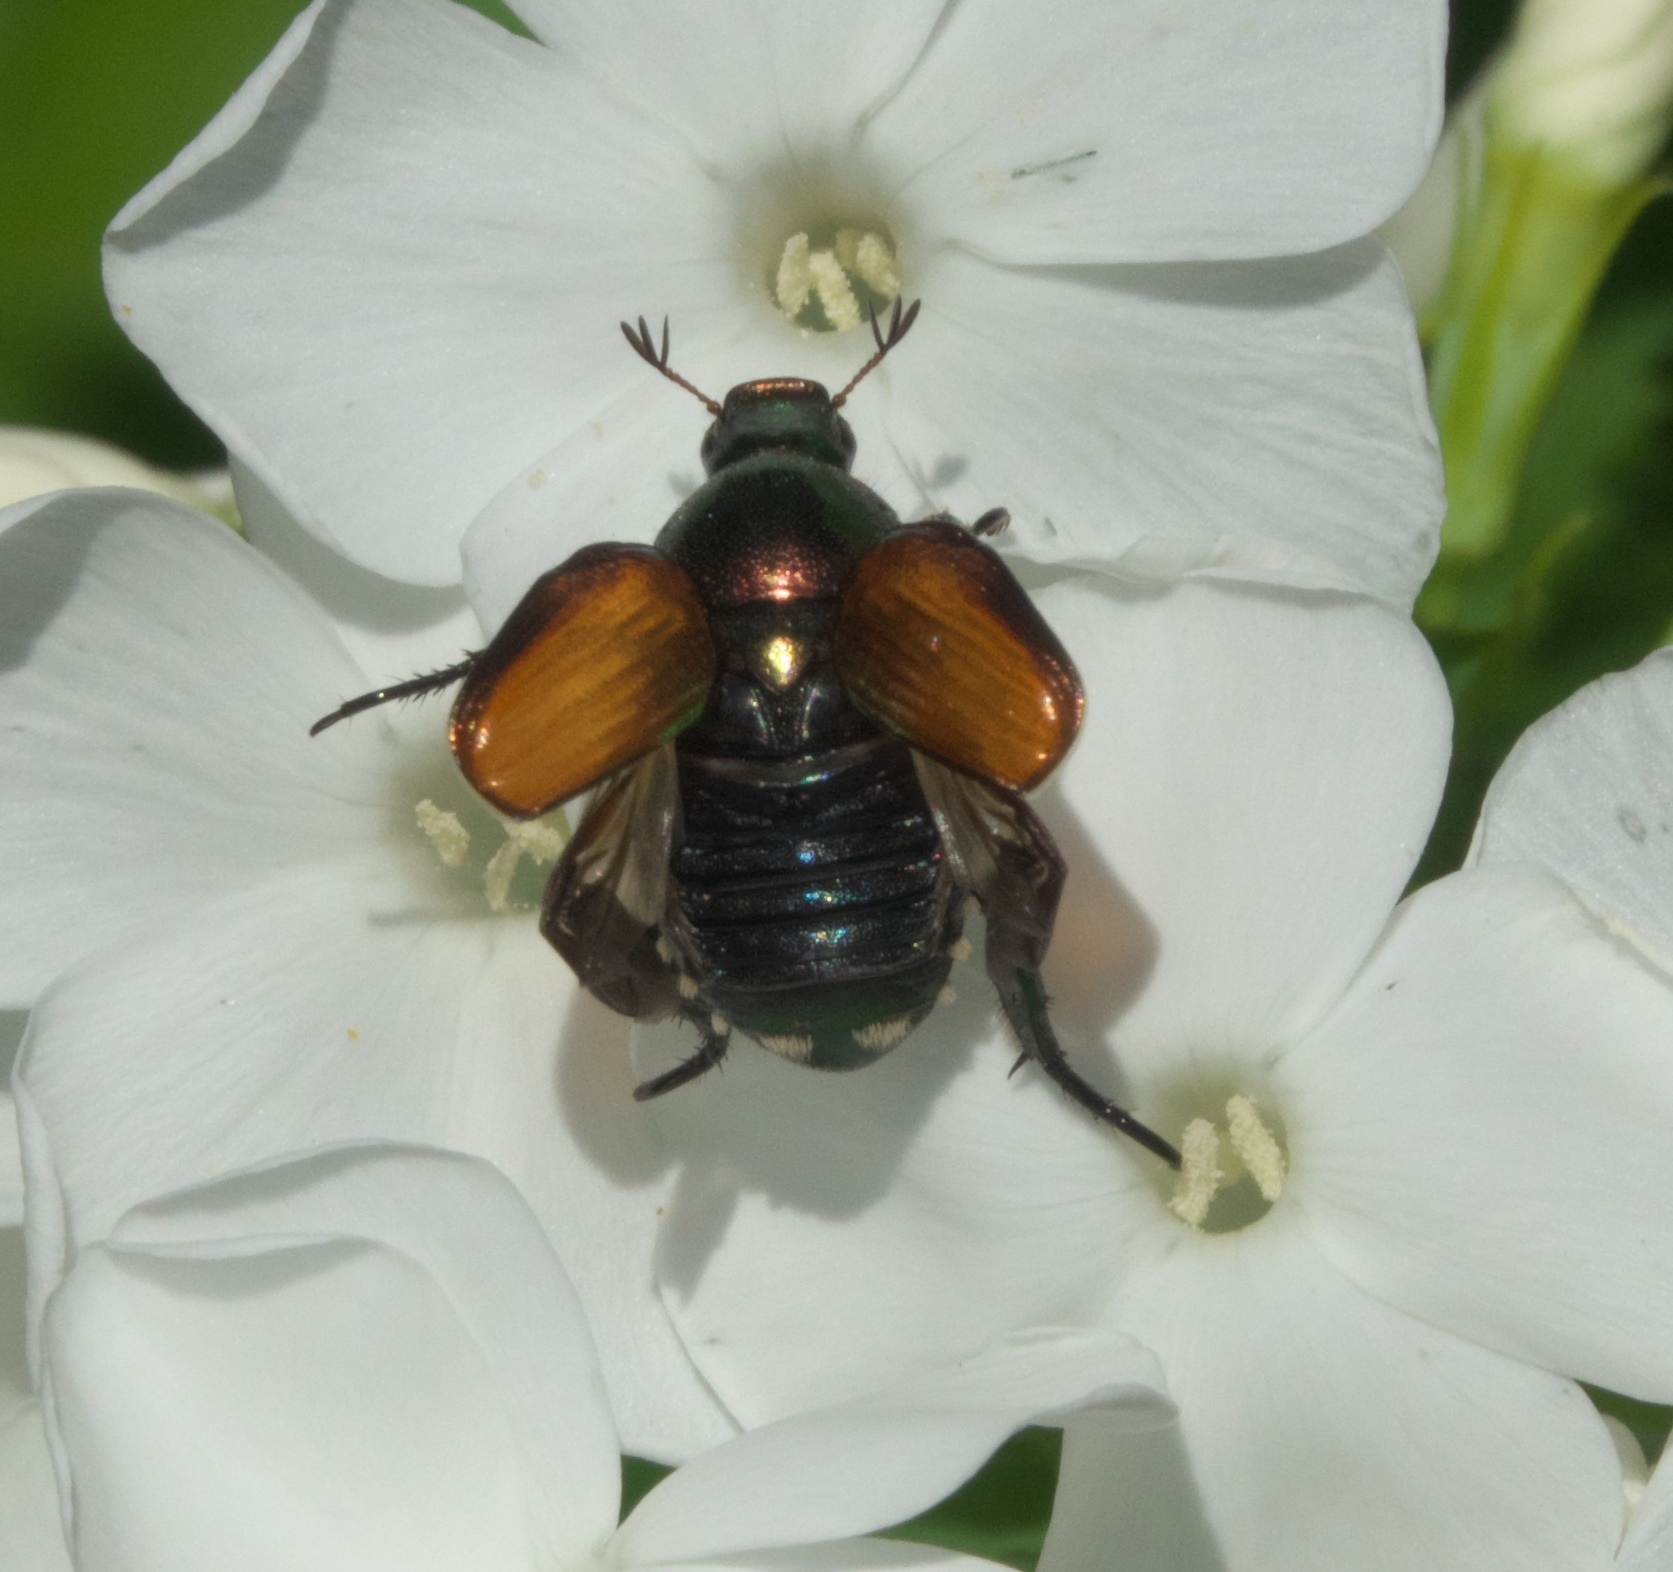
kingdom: Animalia
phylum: Arthropoda
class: Insecta
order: Coleoptera
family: Scarabaeidae
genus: Popillia
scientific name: Popillia japonica
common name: Japanese beetle
